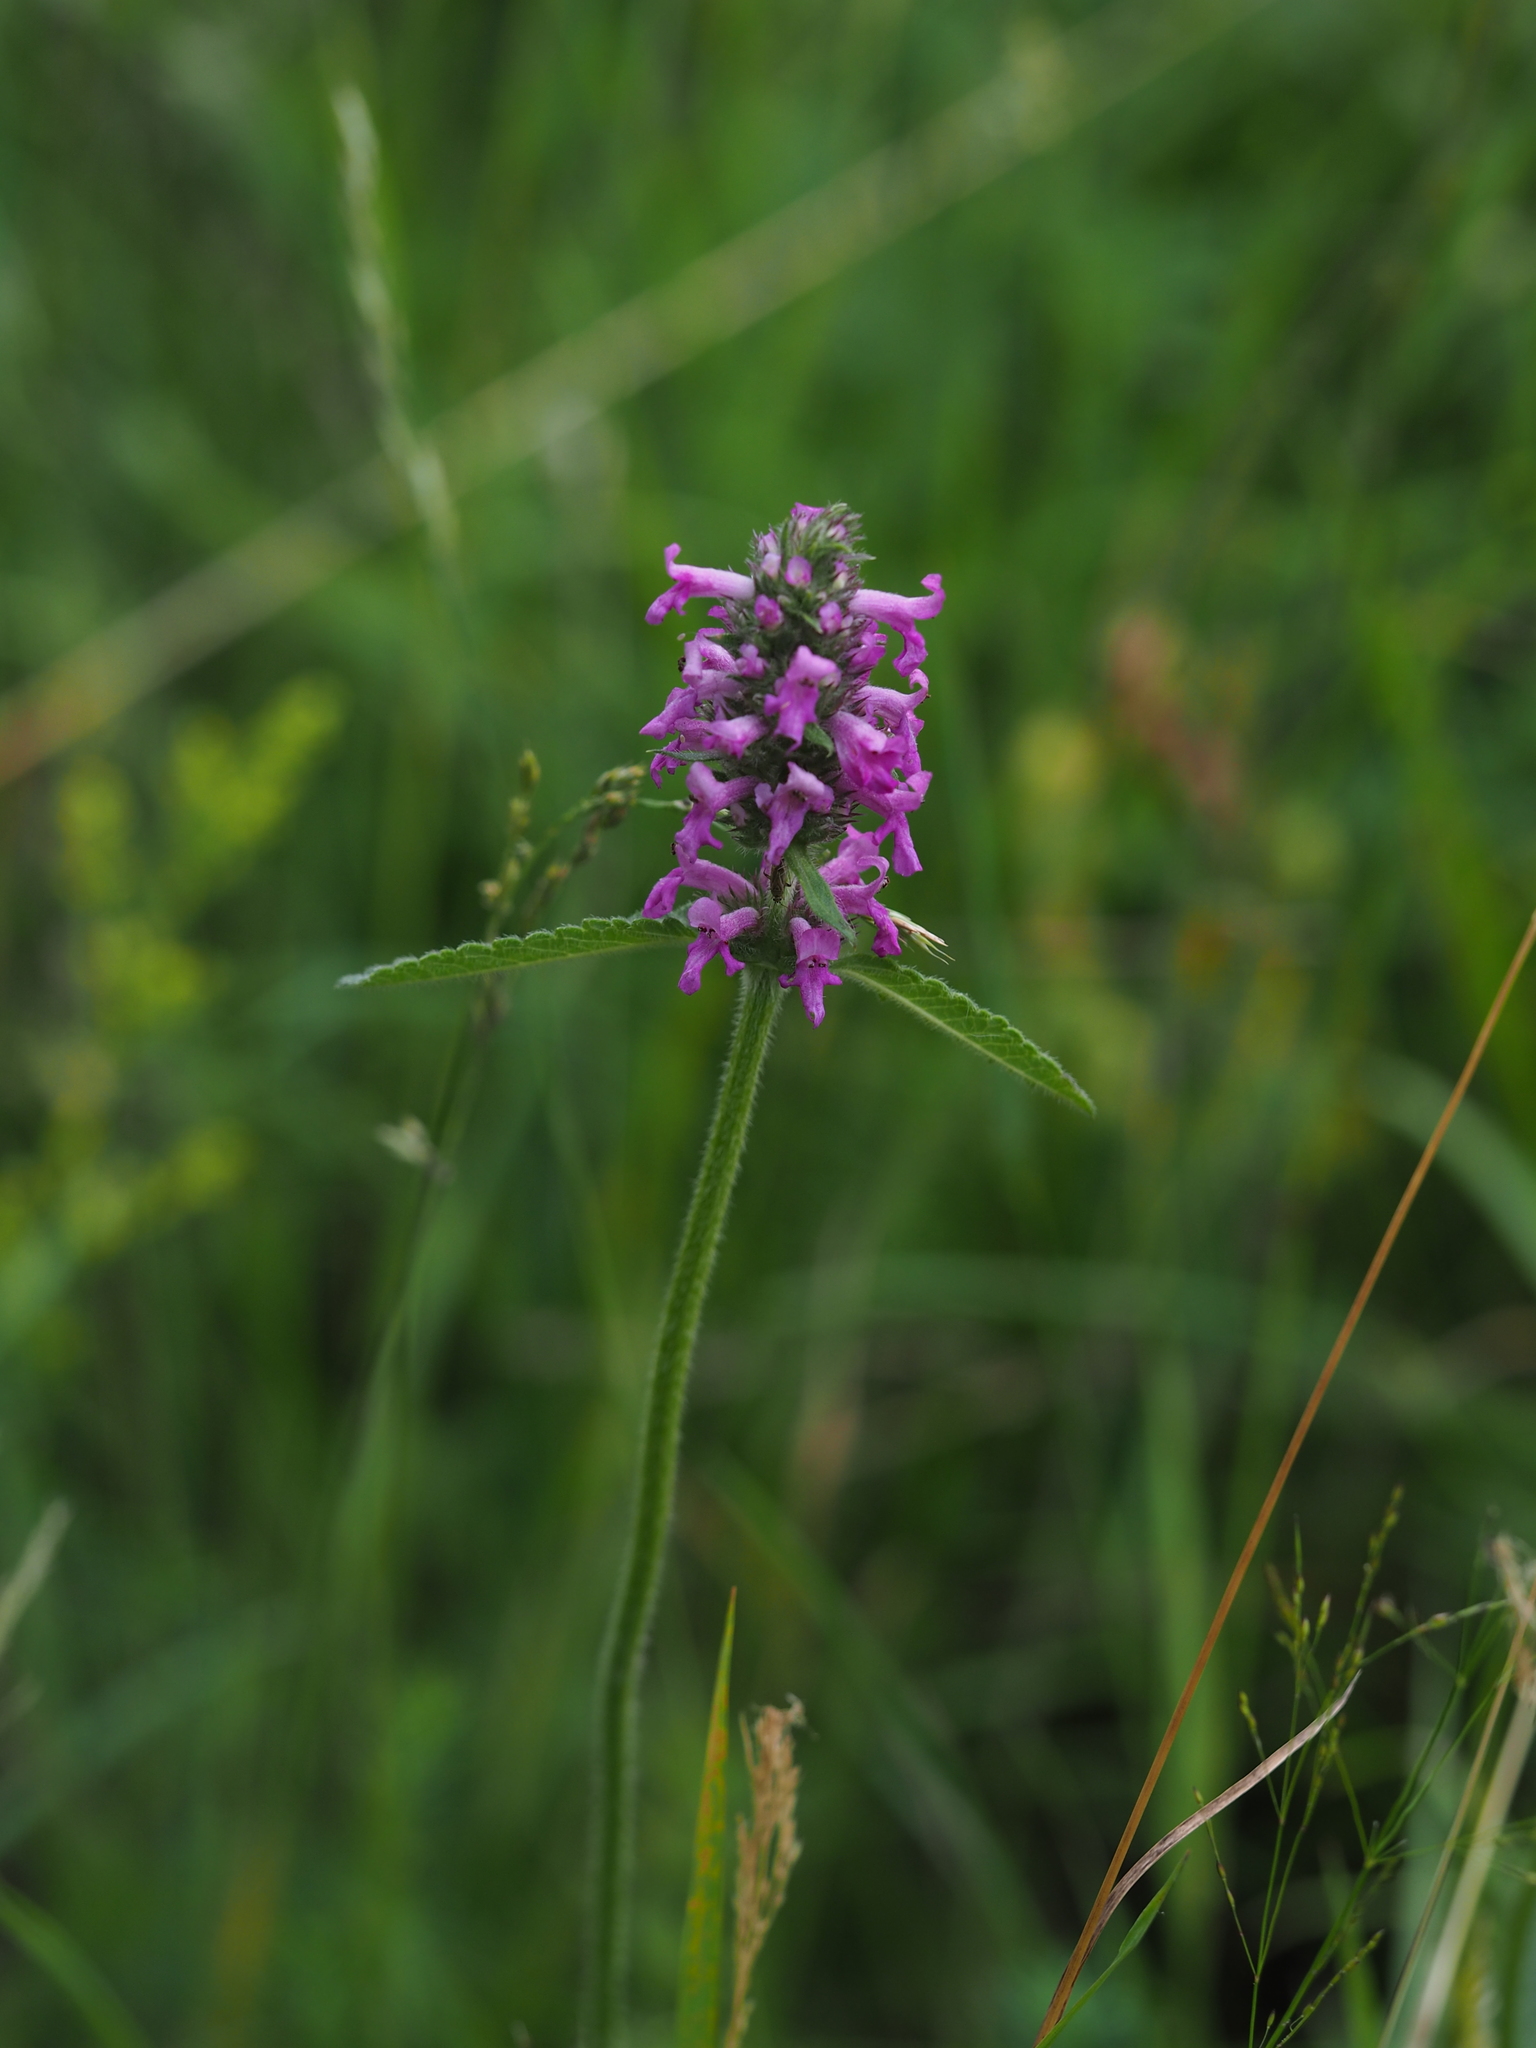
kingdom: Plantae
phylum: Tracheophyta
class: Magnoliopsida
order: Lamiales
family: Lamiaceae
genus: Betonica
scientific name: Betonica officinalis
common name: Bishop's-wort
